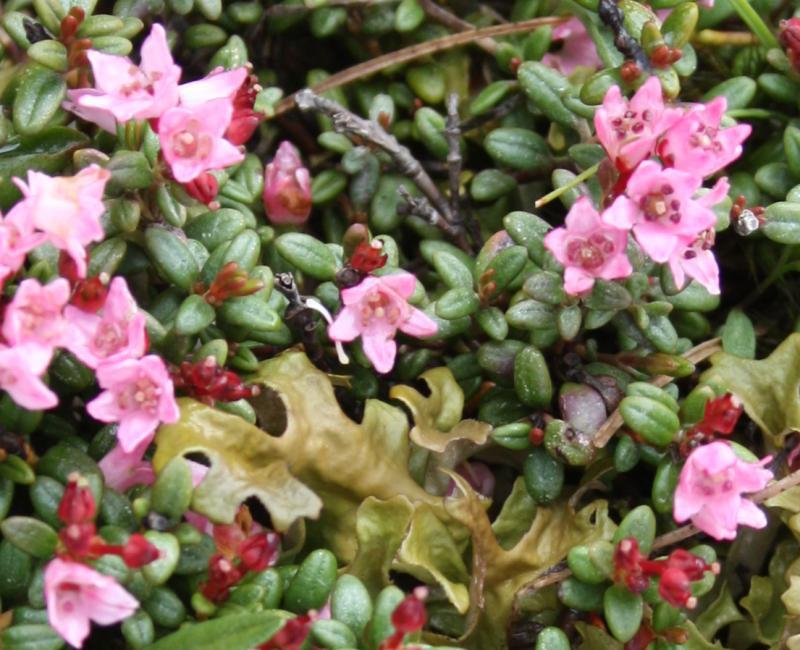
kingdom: Plantae
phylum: Tracheophyta
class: Magnoliopsida
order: Ericales
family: Ericaceae
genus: Kalmia
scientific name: Kalmia procumbens
